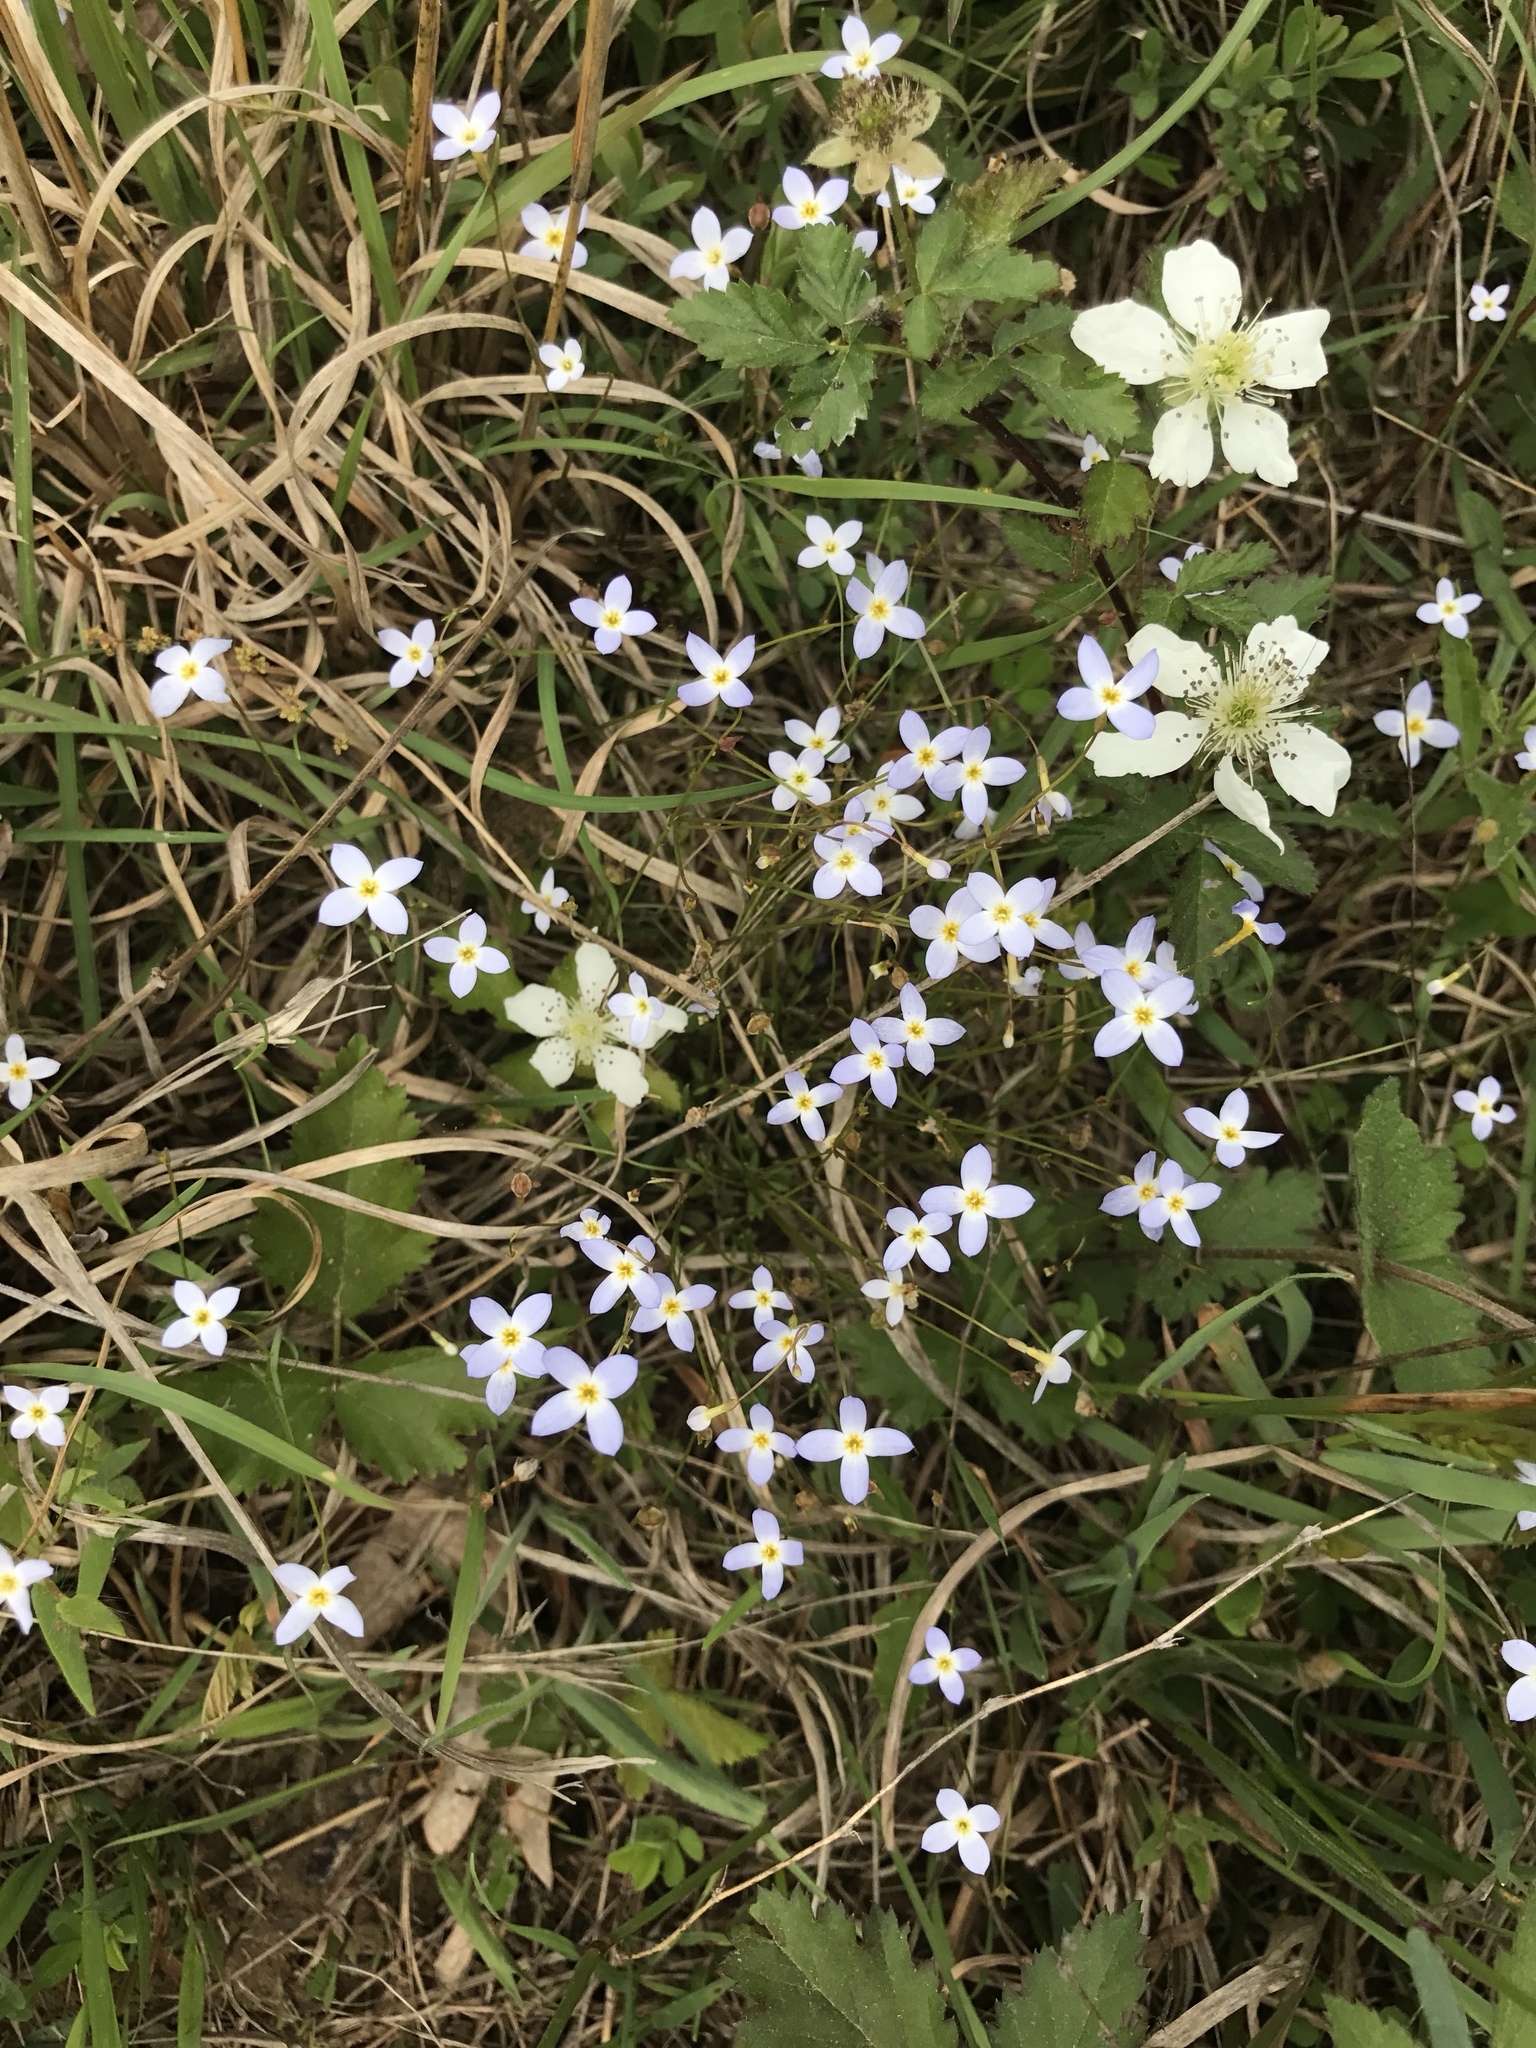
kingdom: Plantae
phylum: Tracheophyta
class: Magnoliopsida
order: Gentianales
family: Rubiaceae
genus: Houstonia
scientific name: Houstonia caerulea
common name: Bluets
